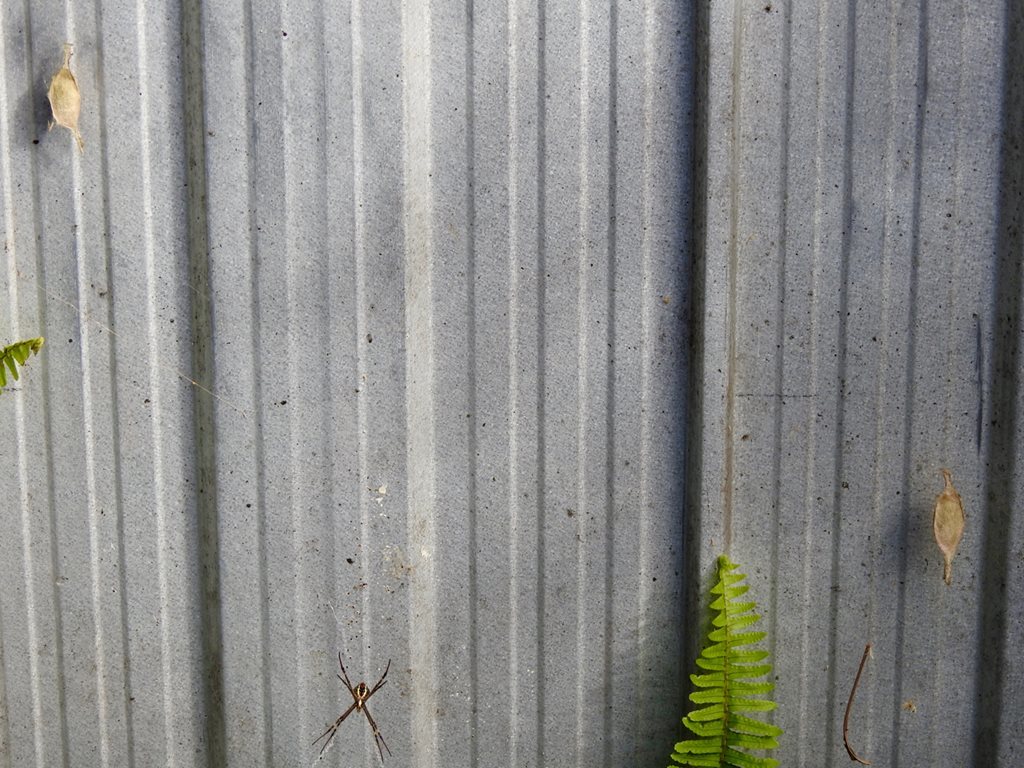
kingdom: Animalia
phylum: Arthropoda
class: Arachnida
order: Araneae
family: Araneidae
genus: Argiope
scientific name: Argiope keyserlingi
